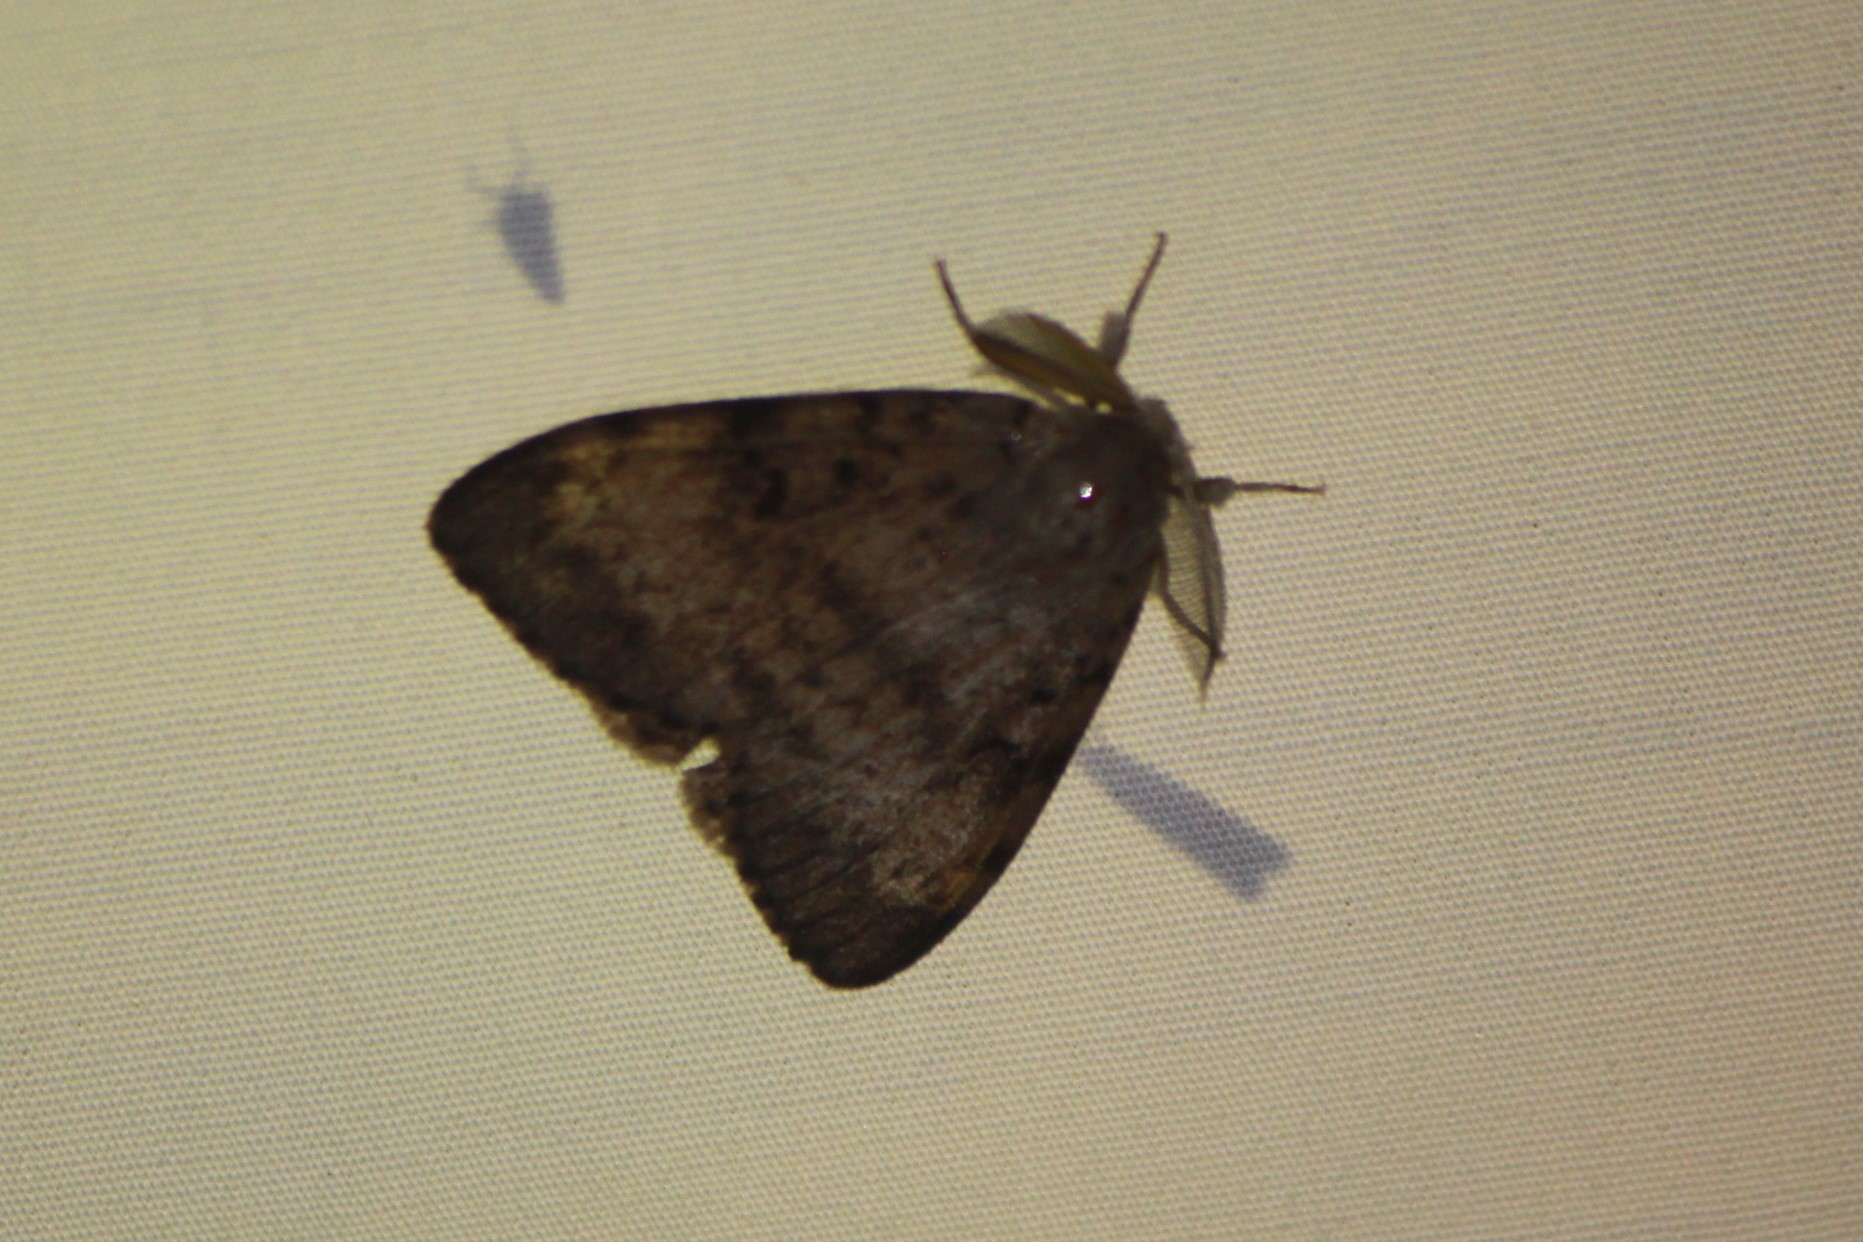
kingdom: Animalia
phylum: Arthropoda
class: Insecta
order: Lepidoptera
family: Erebidae
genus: Lymantria
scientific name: Lymantria dispar
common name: Gypsy moth
